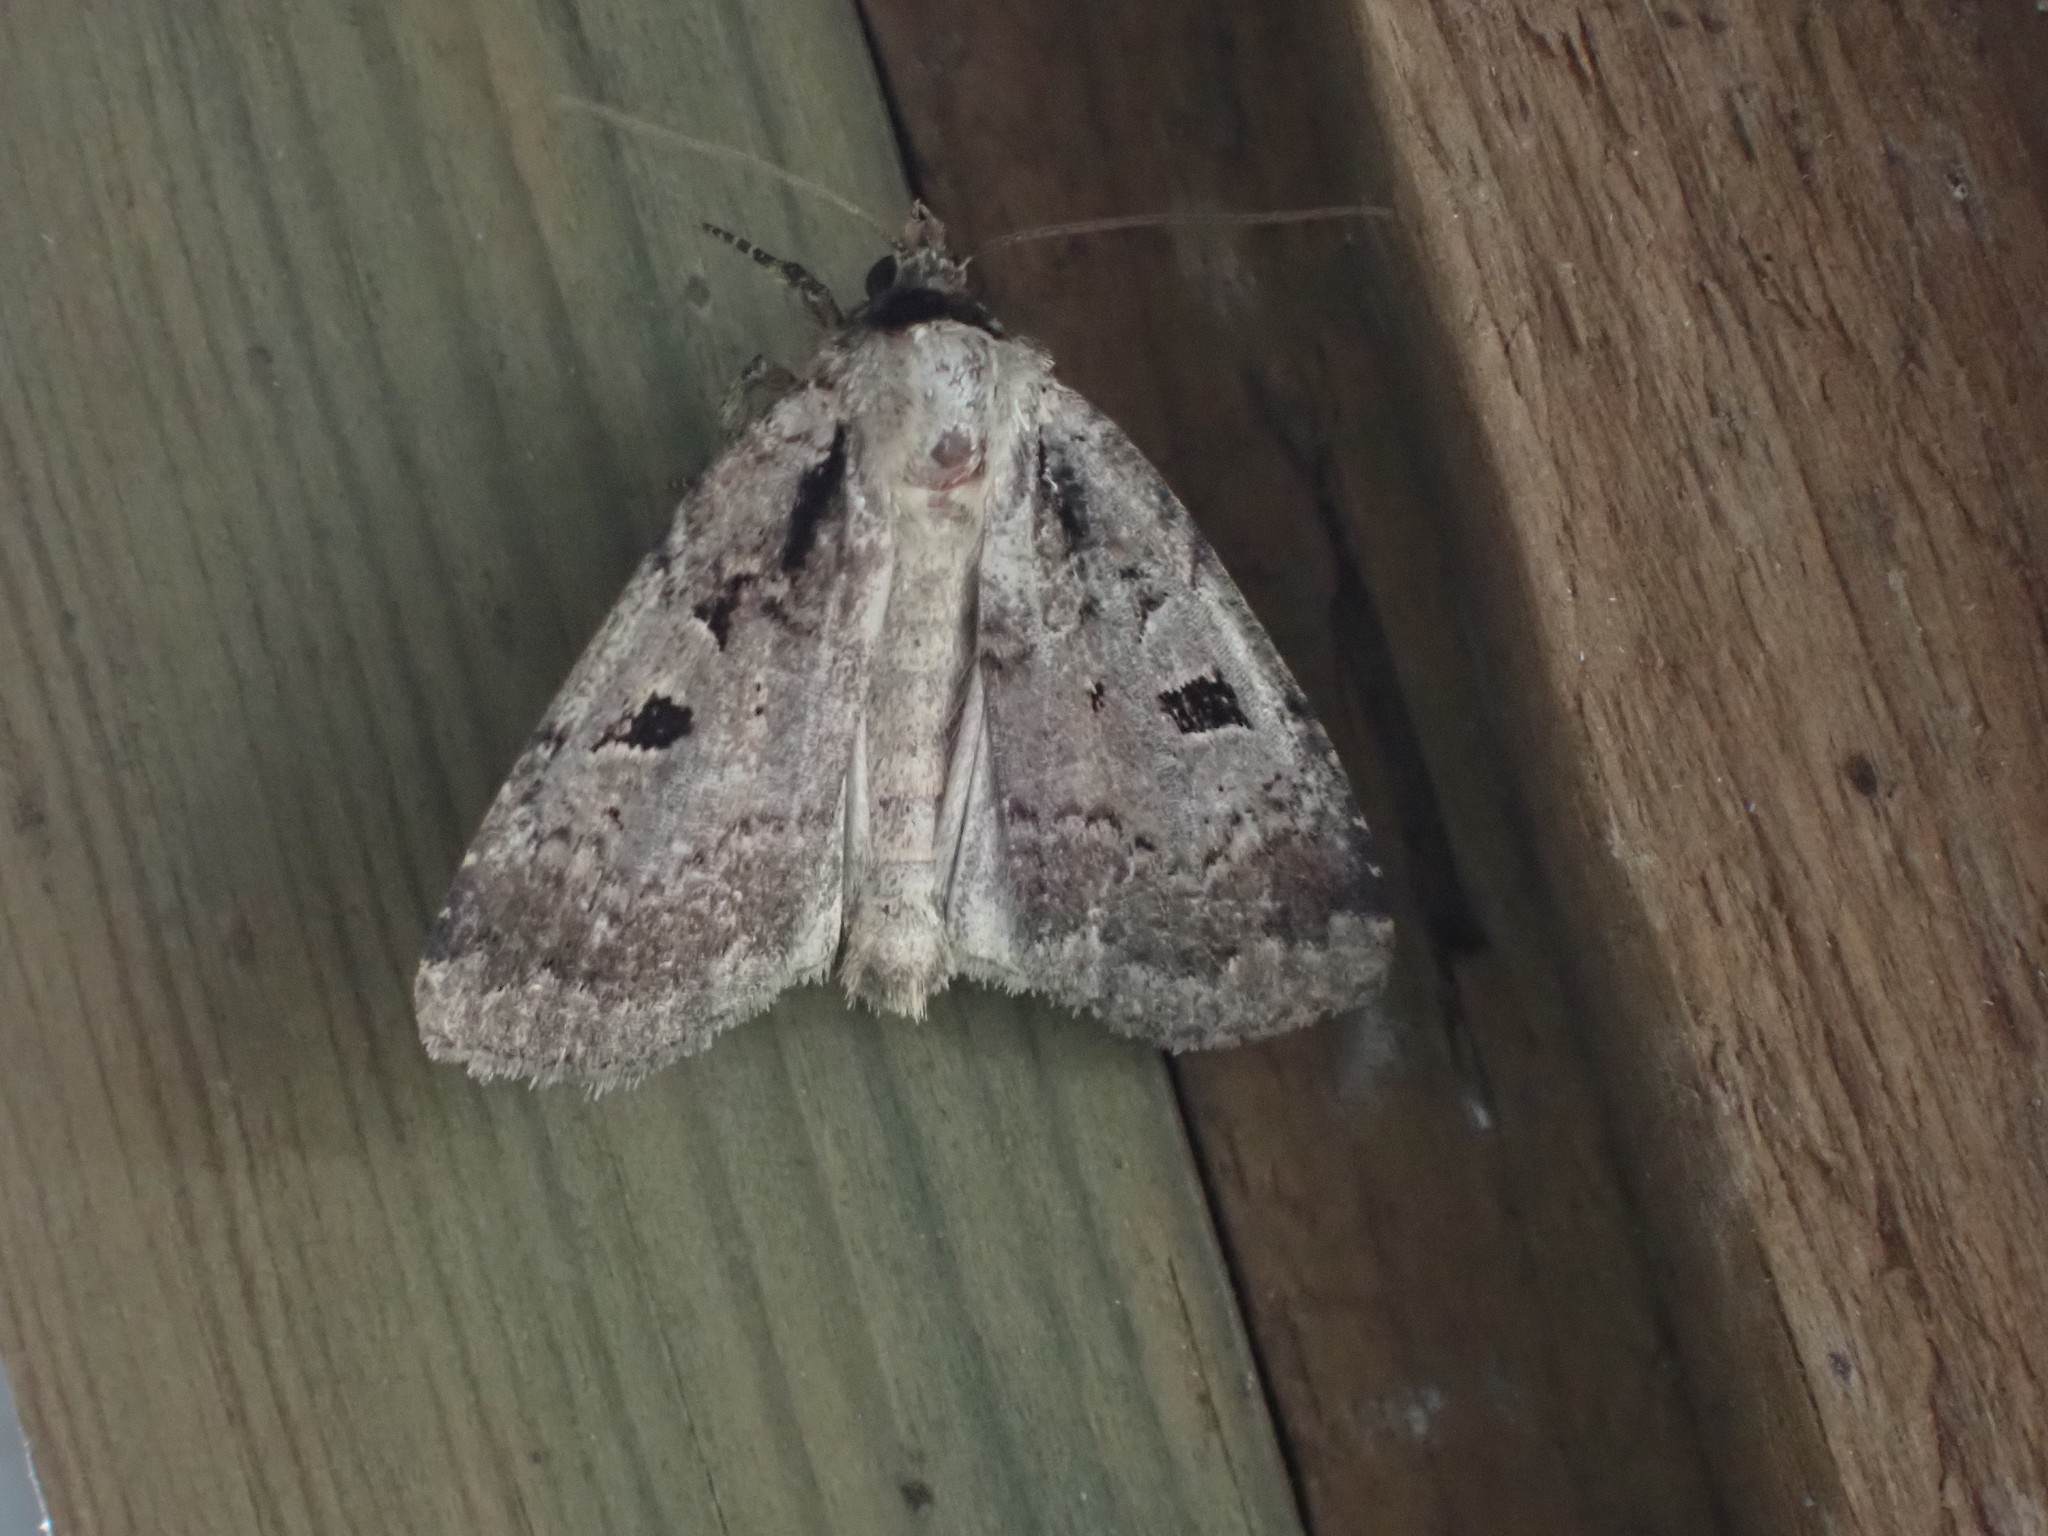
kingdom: Animalia
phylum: Arthropoda
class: Insecta
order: Lepidoptera
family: Noctuidae
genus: Eueretagrotis
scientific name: Eueretagrotis perattentus
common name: Two-spot dart moth
